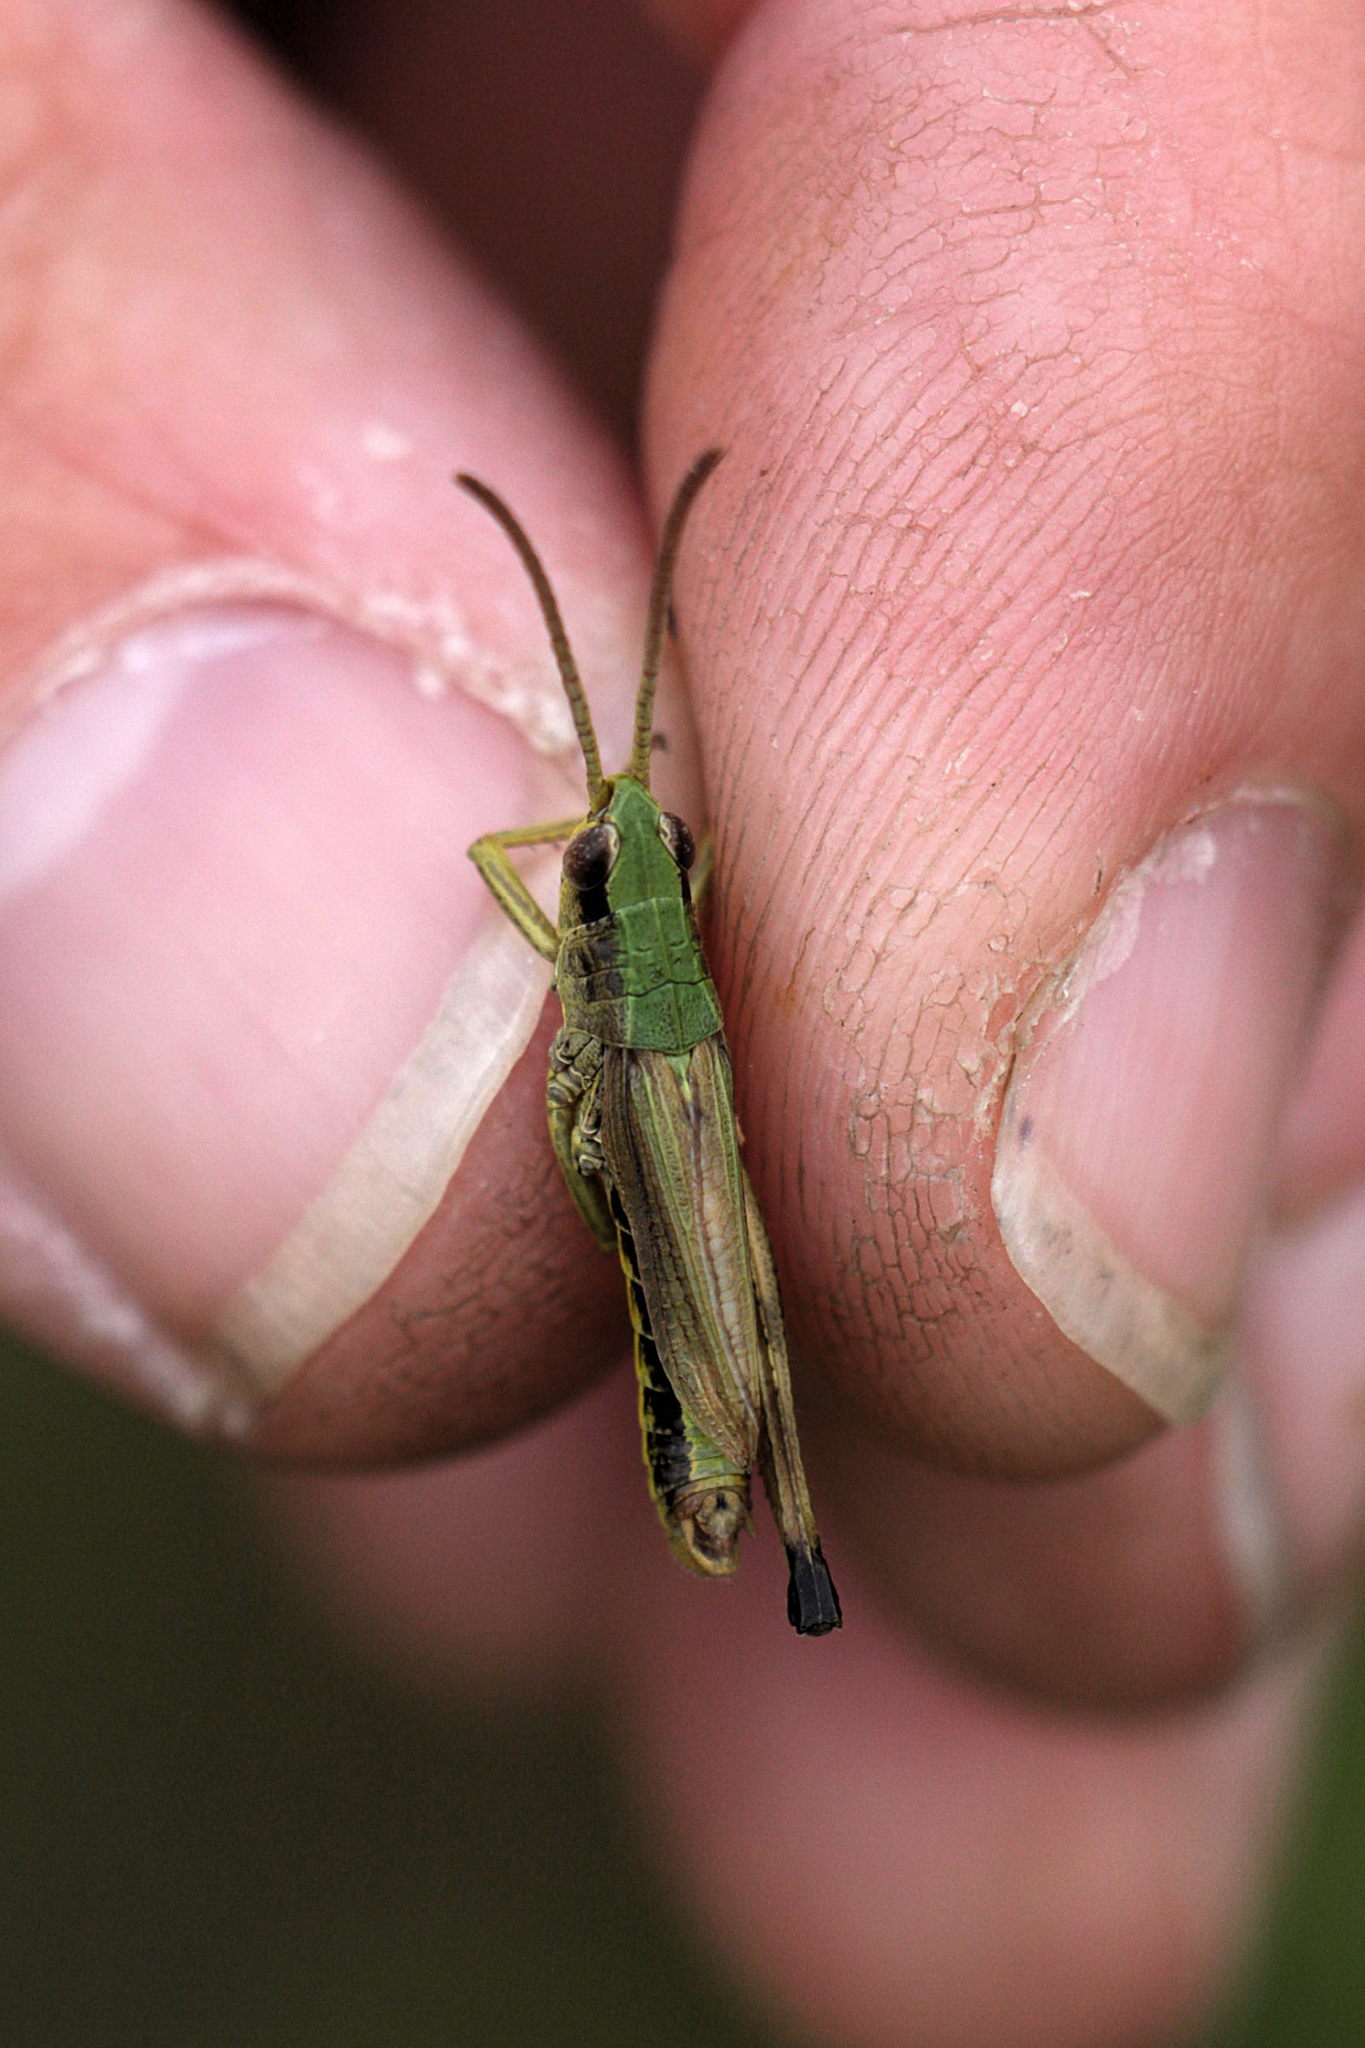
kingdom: Animalia
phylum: Arthropoda
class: Insecta
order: Orthoptera
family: Acrididae
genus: Pseudochorthippus
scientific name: Pseudochorthippus parallelus
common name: Meadow grasshopper
